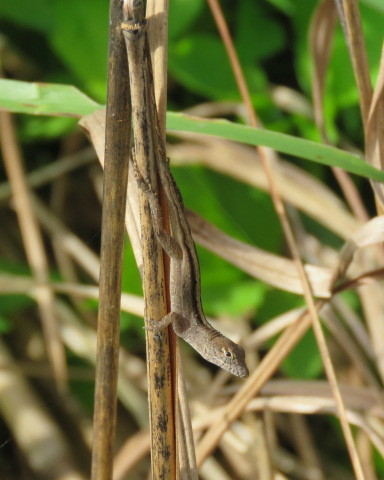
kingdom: Animalia
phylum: Chordata
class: Squamata
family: Dactyloidae
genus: Anolis
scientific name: Anolis sagrei
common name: Brown anole
